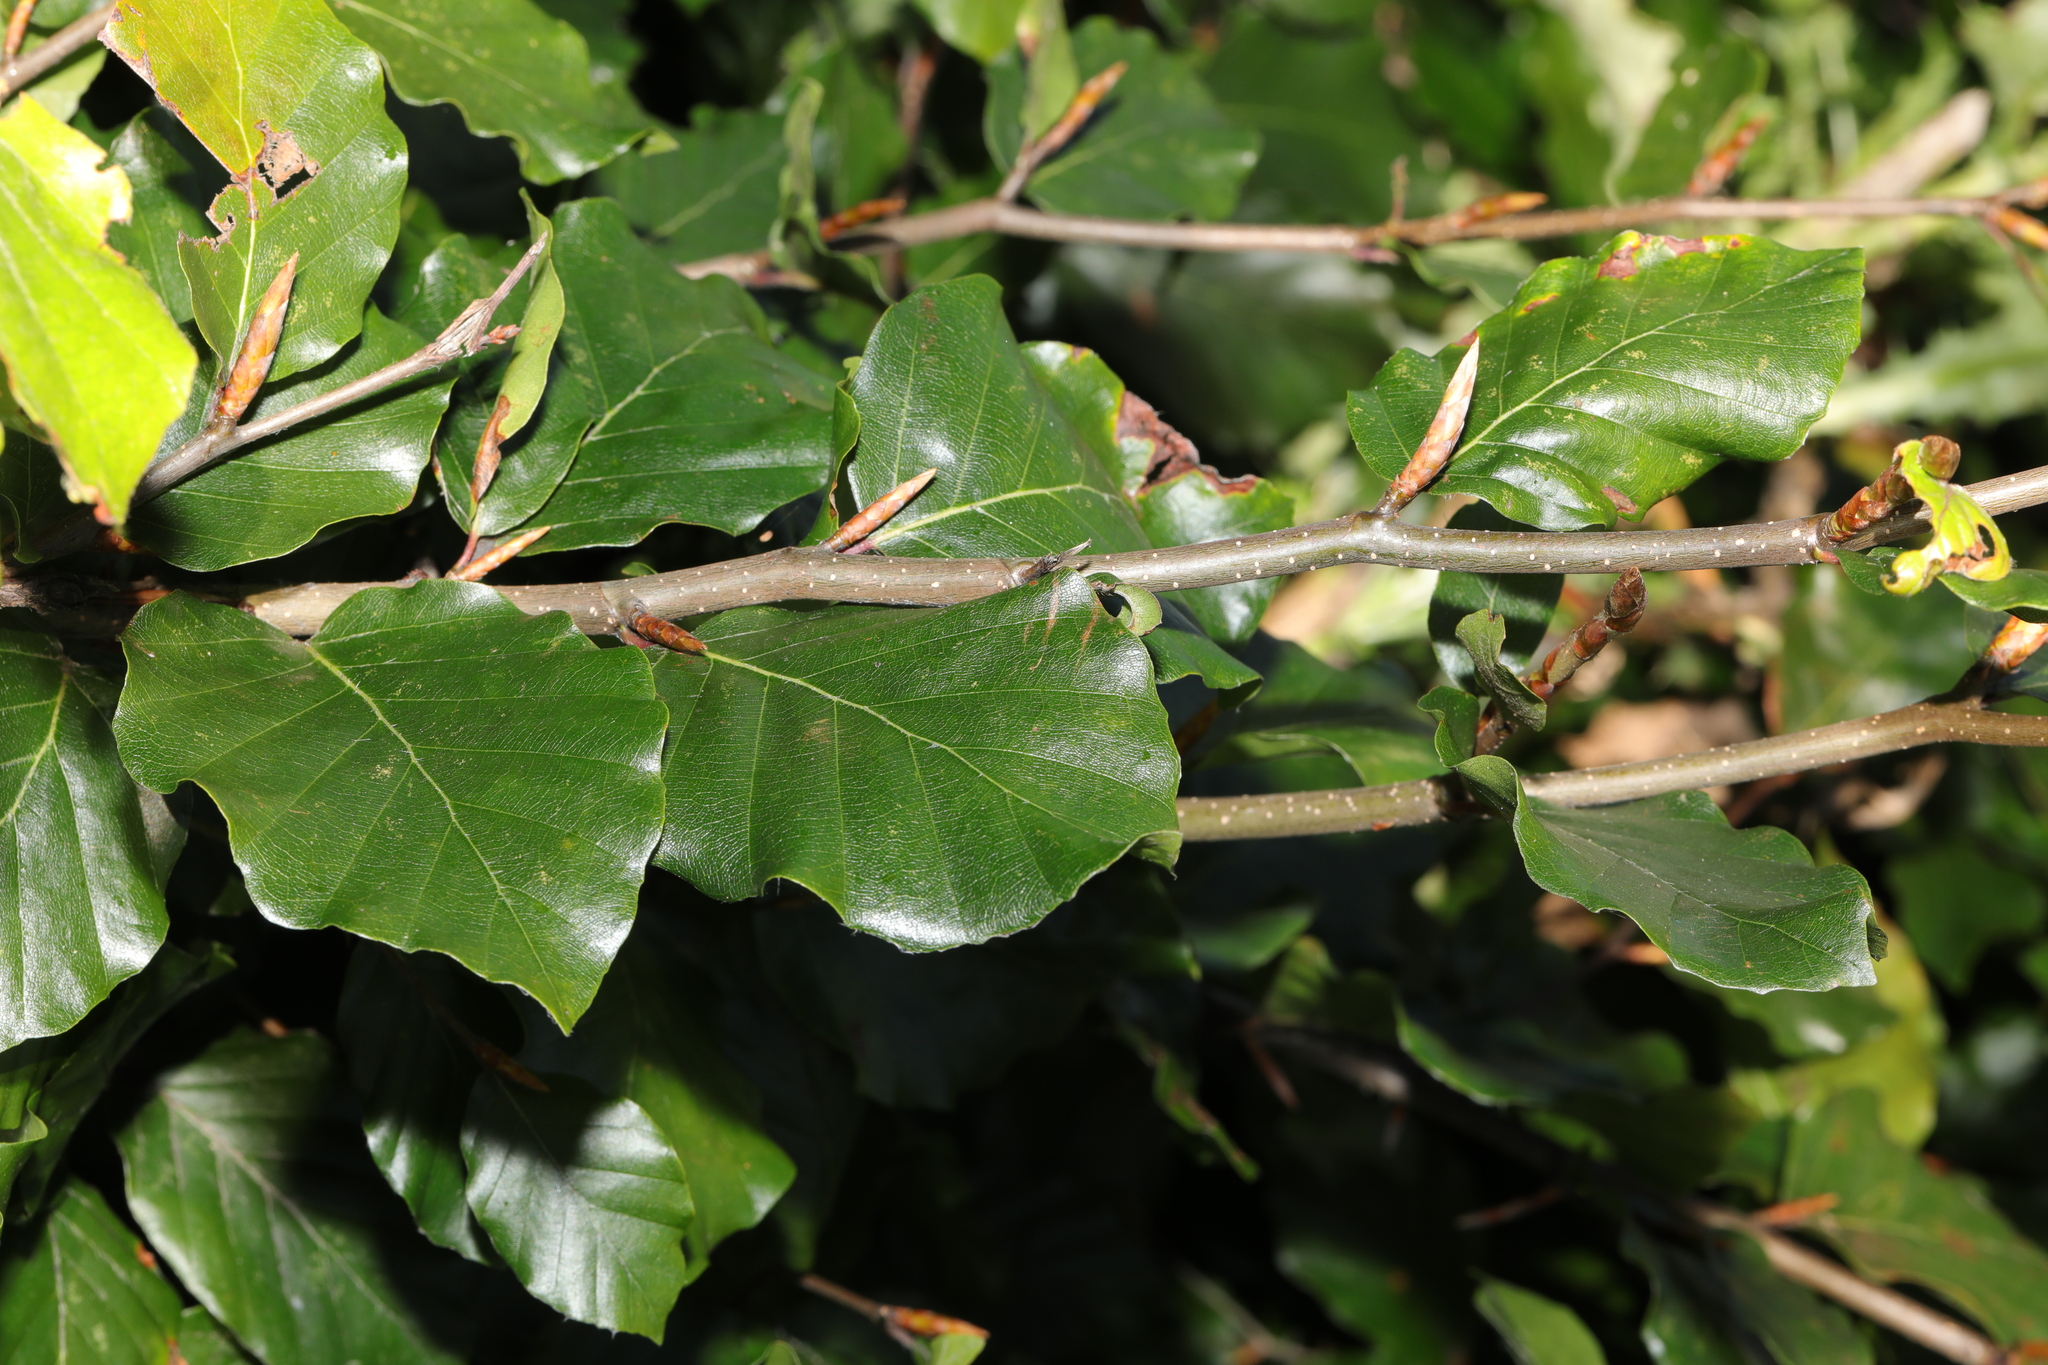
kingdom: Plantae
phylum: Tracheophyta
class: Magnoliopsida
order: Fagales
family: Fagaceae
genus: Fagus
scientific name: Fagus sylvatica
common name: Beech
